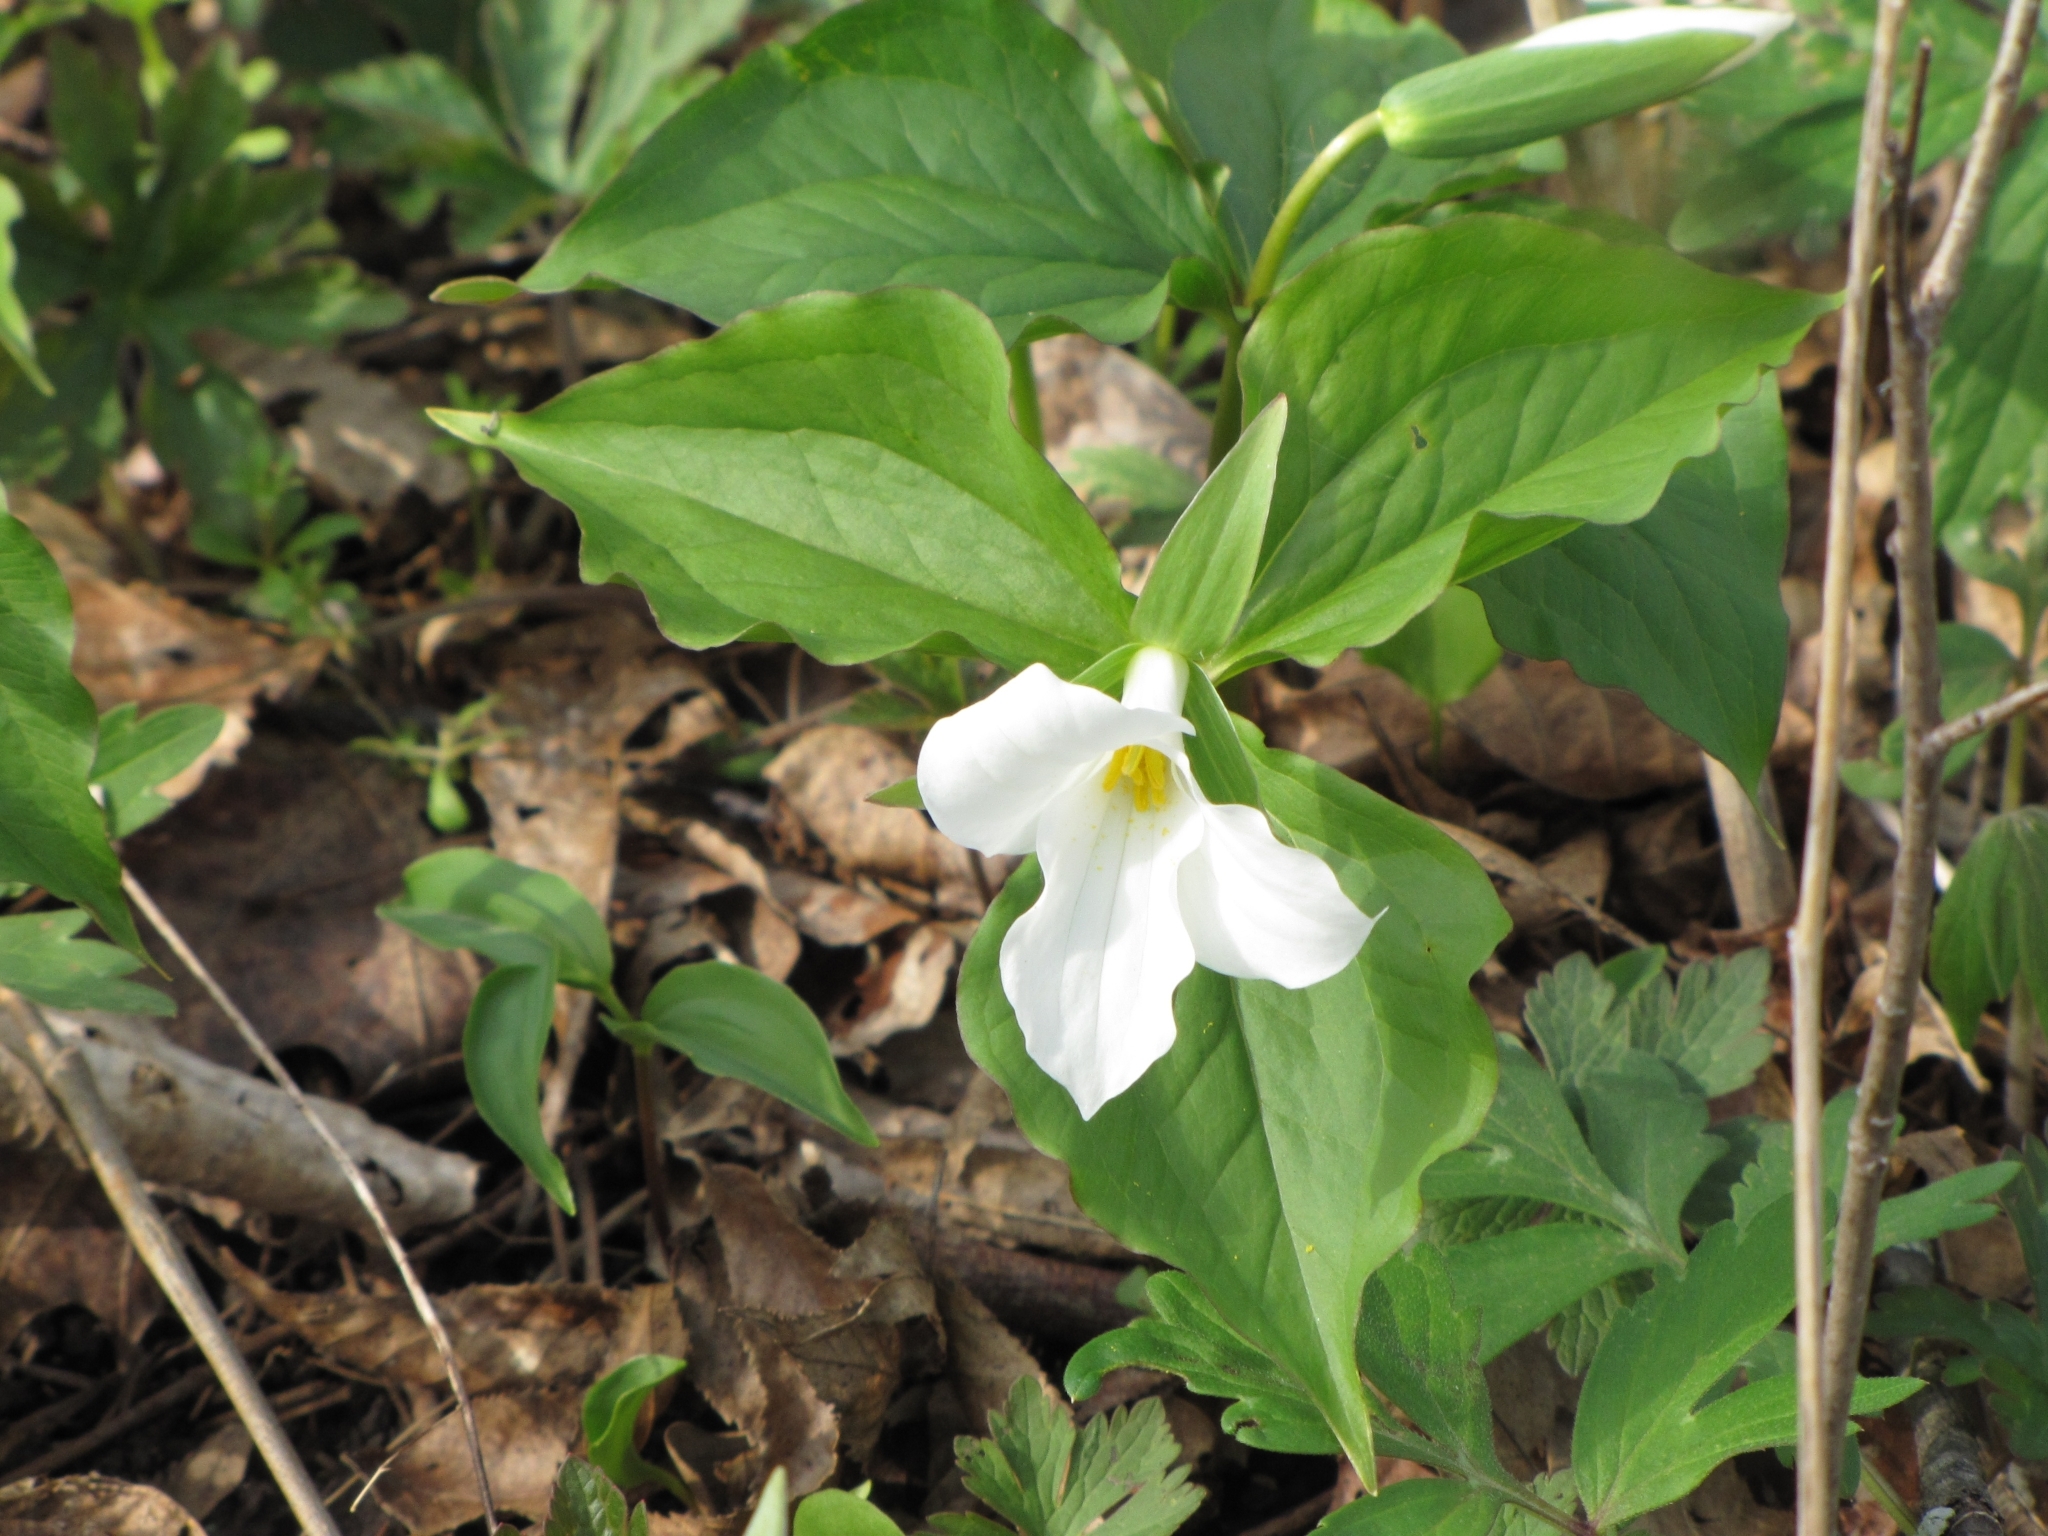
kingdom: Plantae
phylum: Tracheophyta
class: Liliopsida
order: Liliales
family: Melanthiaceae
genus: Trillium
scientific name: Trillium grandiflorum
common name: Great white trillium
